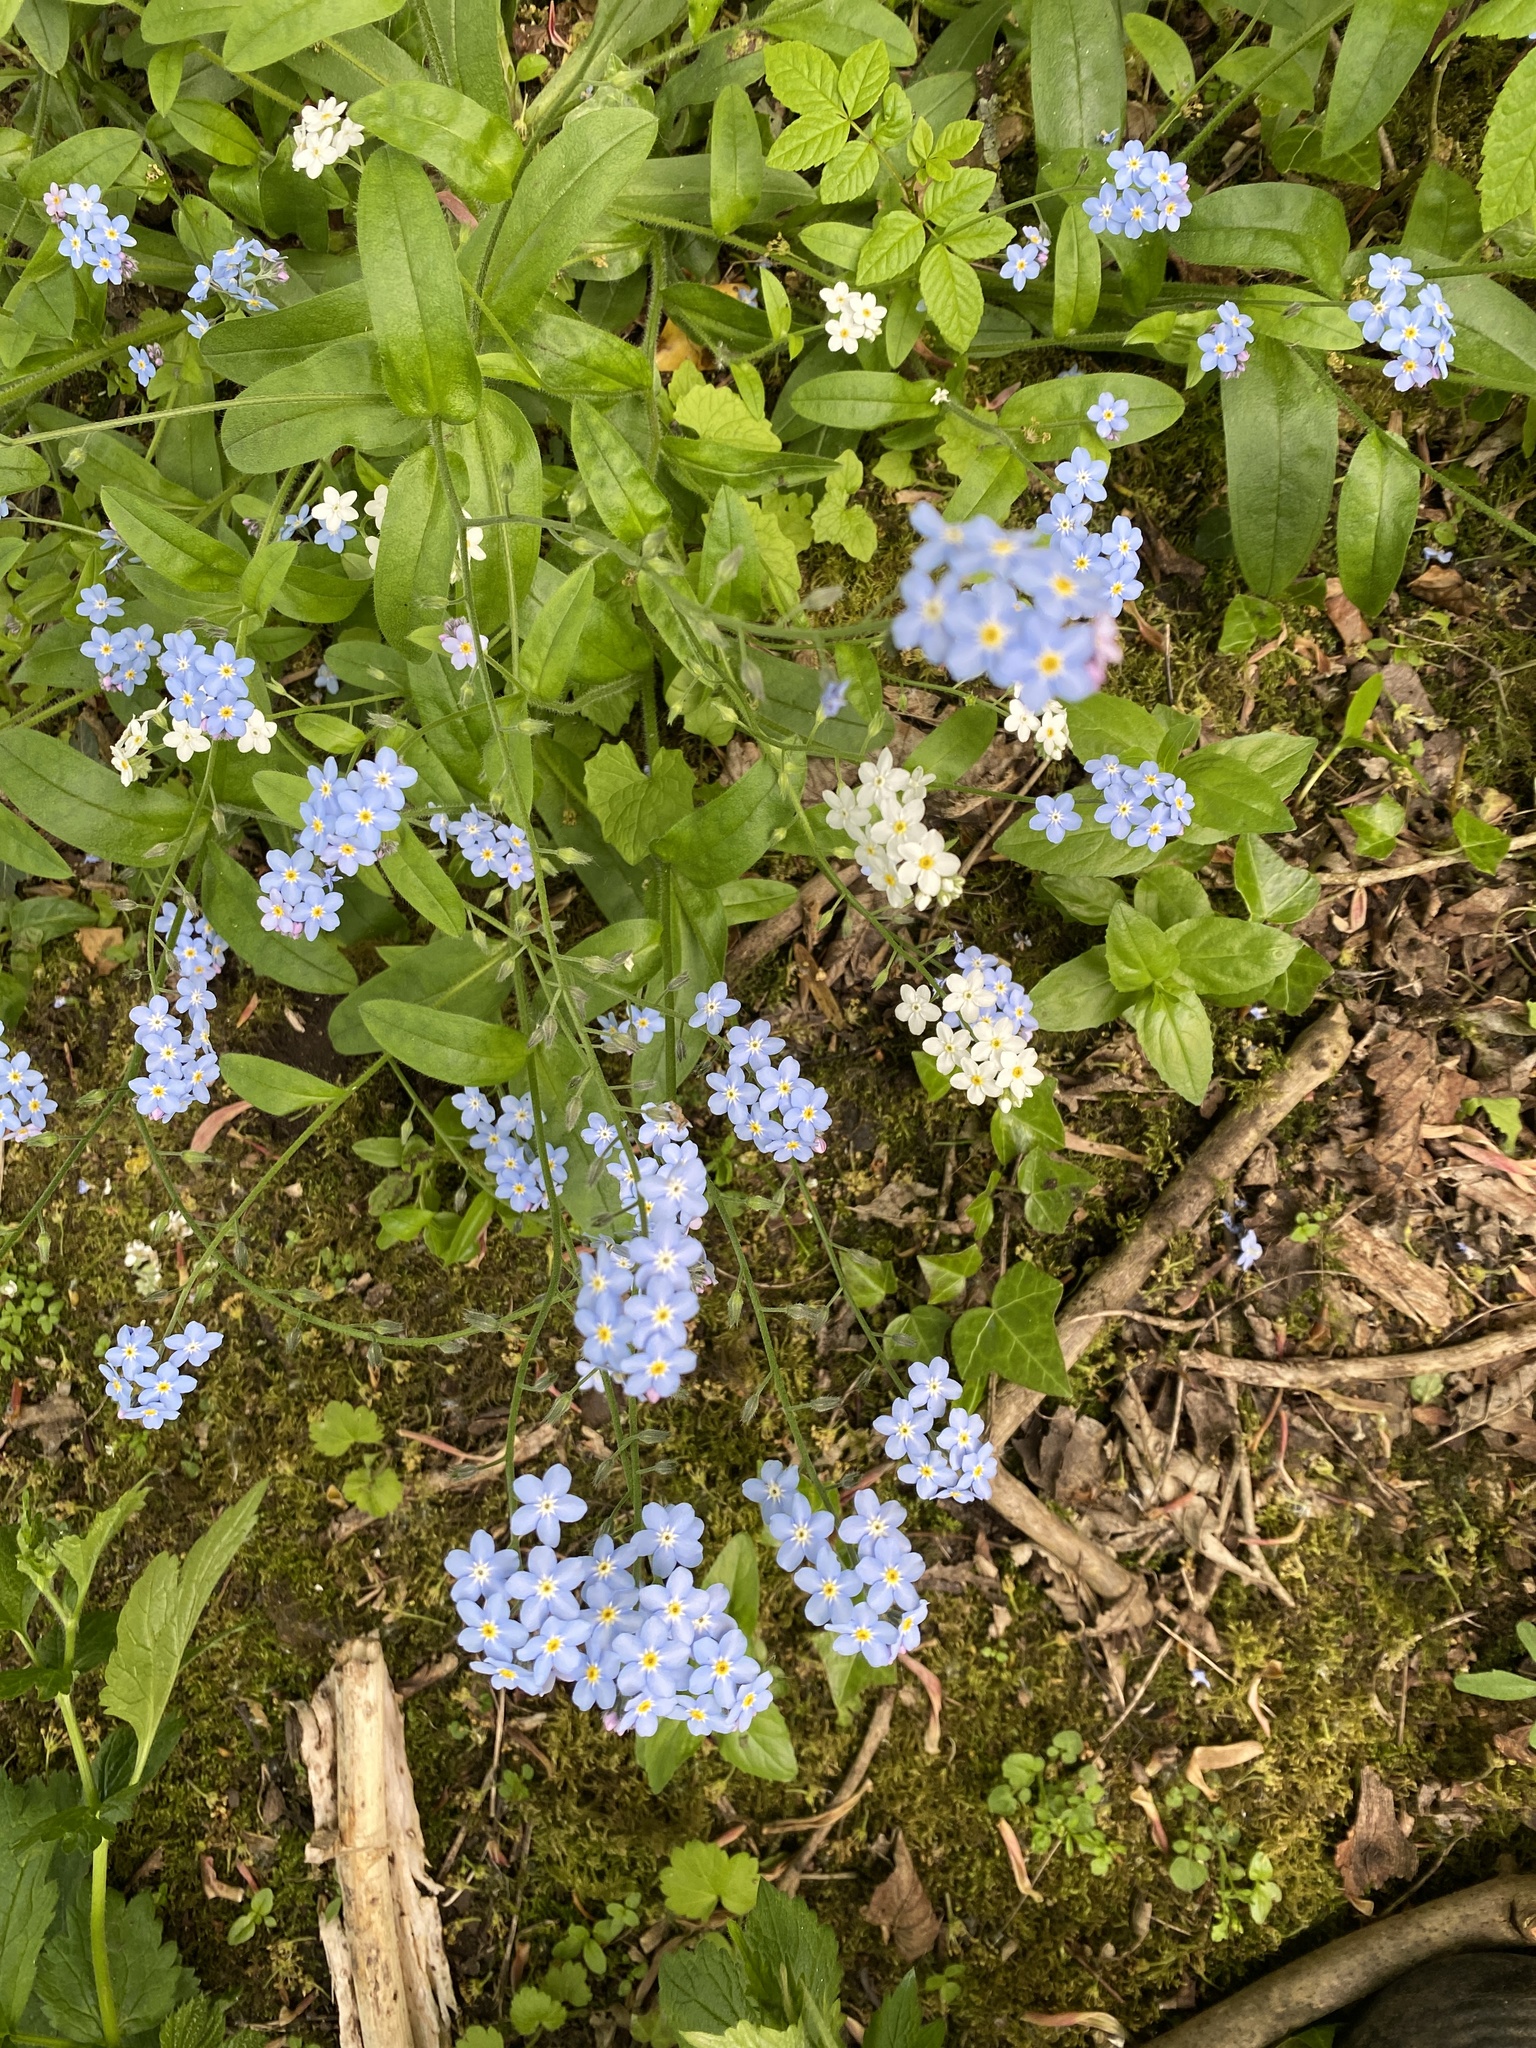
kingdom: Plantae
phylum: Tracheophyta
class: Magnoliopsida
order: Boraginales
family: Boraginaceae
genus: Myosotis
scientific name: Myosotis sylvatica
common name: Wood forget-me-not
